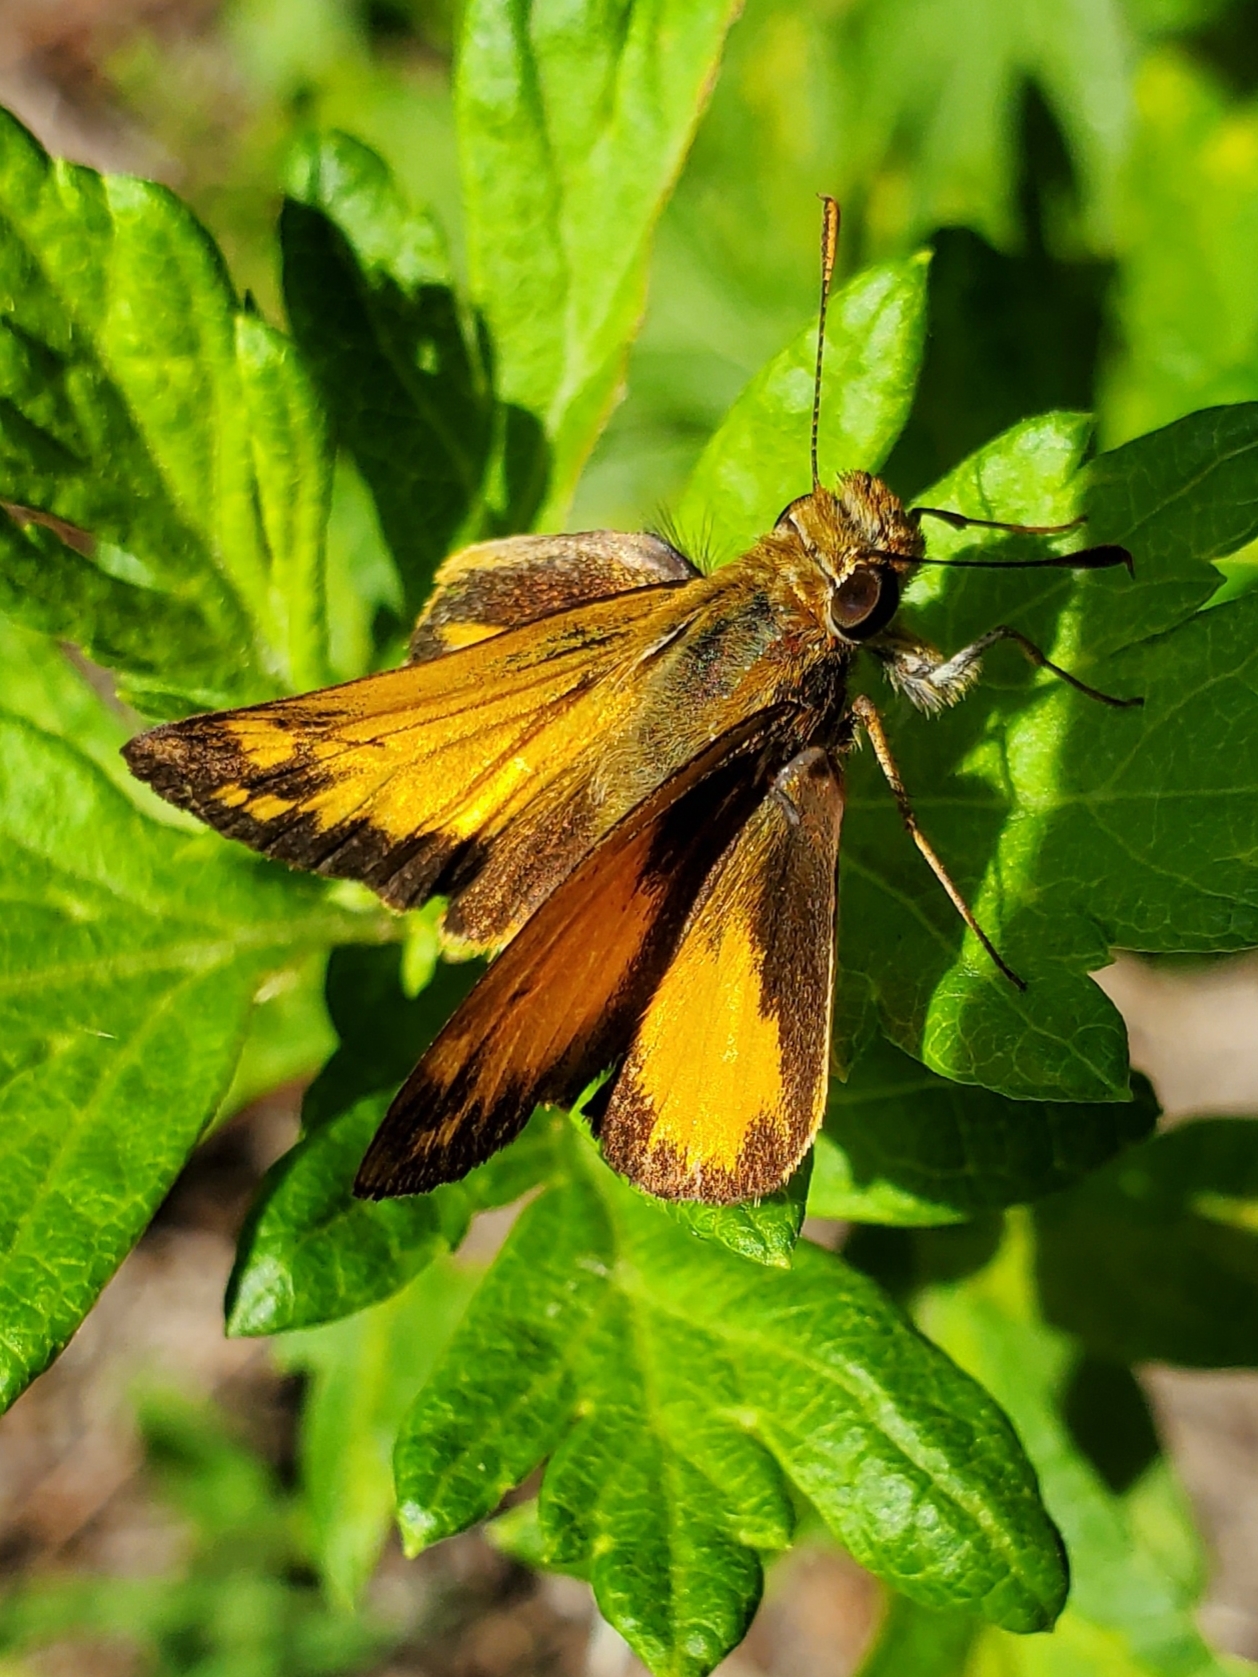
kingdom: Animalia
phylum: Arthropoda
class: Insecta
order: Lepidoptera
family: Hesperiidae
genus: Lon
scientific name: Lon zabulon
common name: Zabulon skipper
